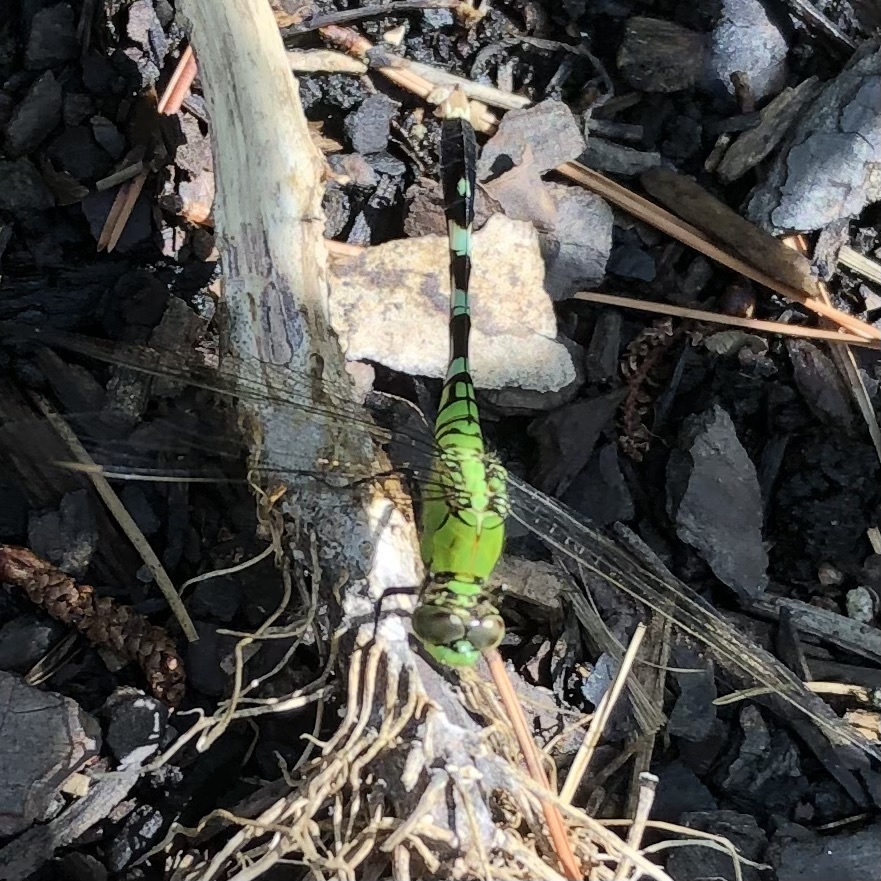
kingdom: Animalia
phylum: Arthropoda
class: Insecta
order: Odonata
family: Libellulidae
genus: Erythemis
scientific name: Erythemis simplicicollis
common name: Eastern pondhawk
